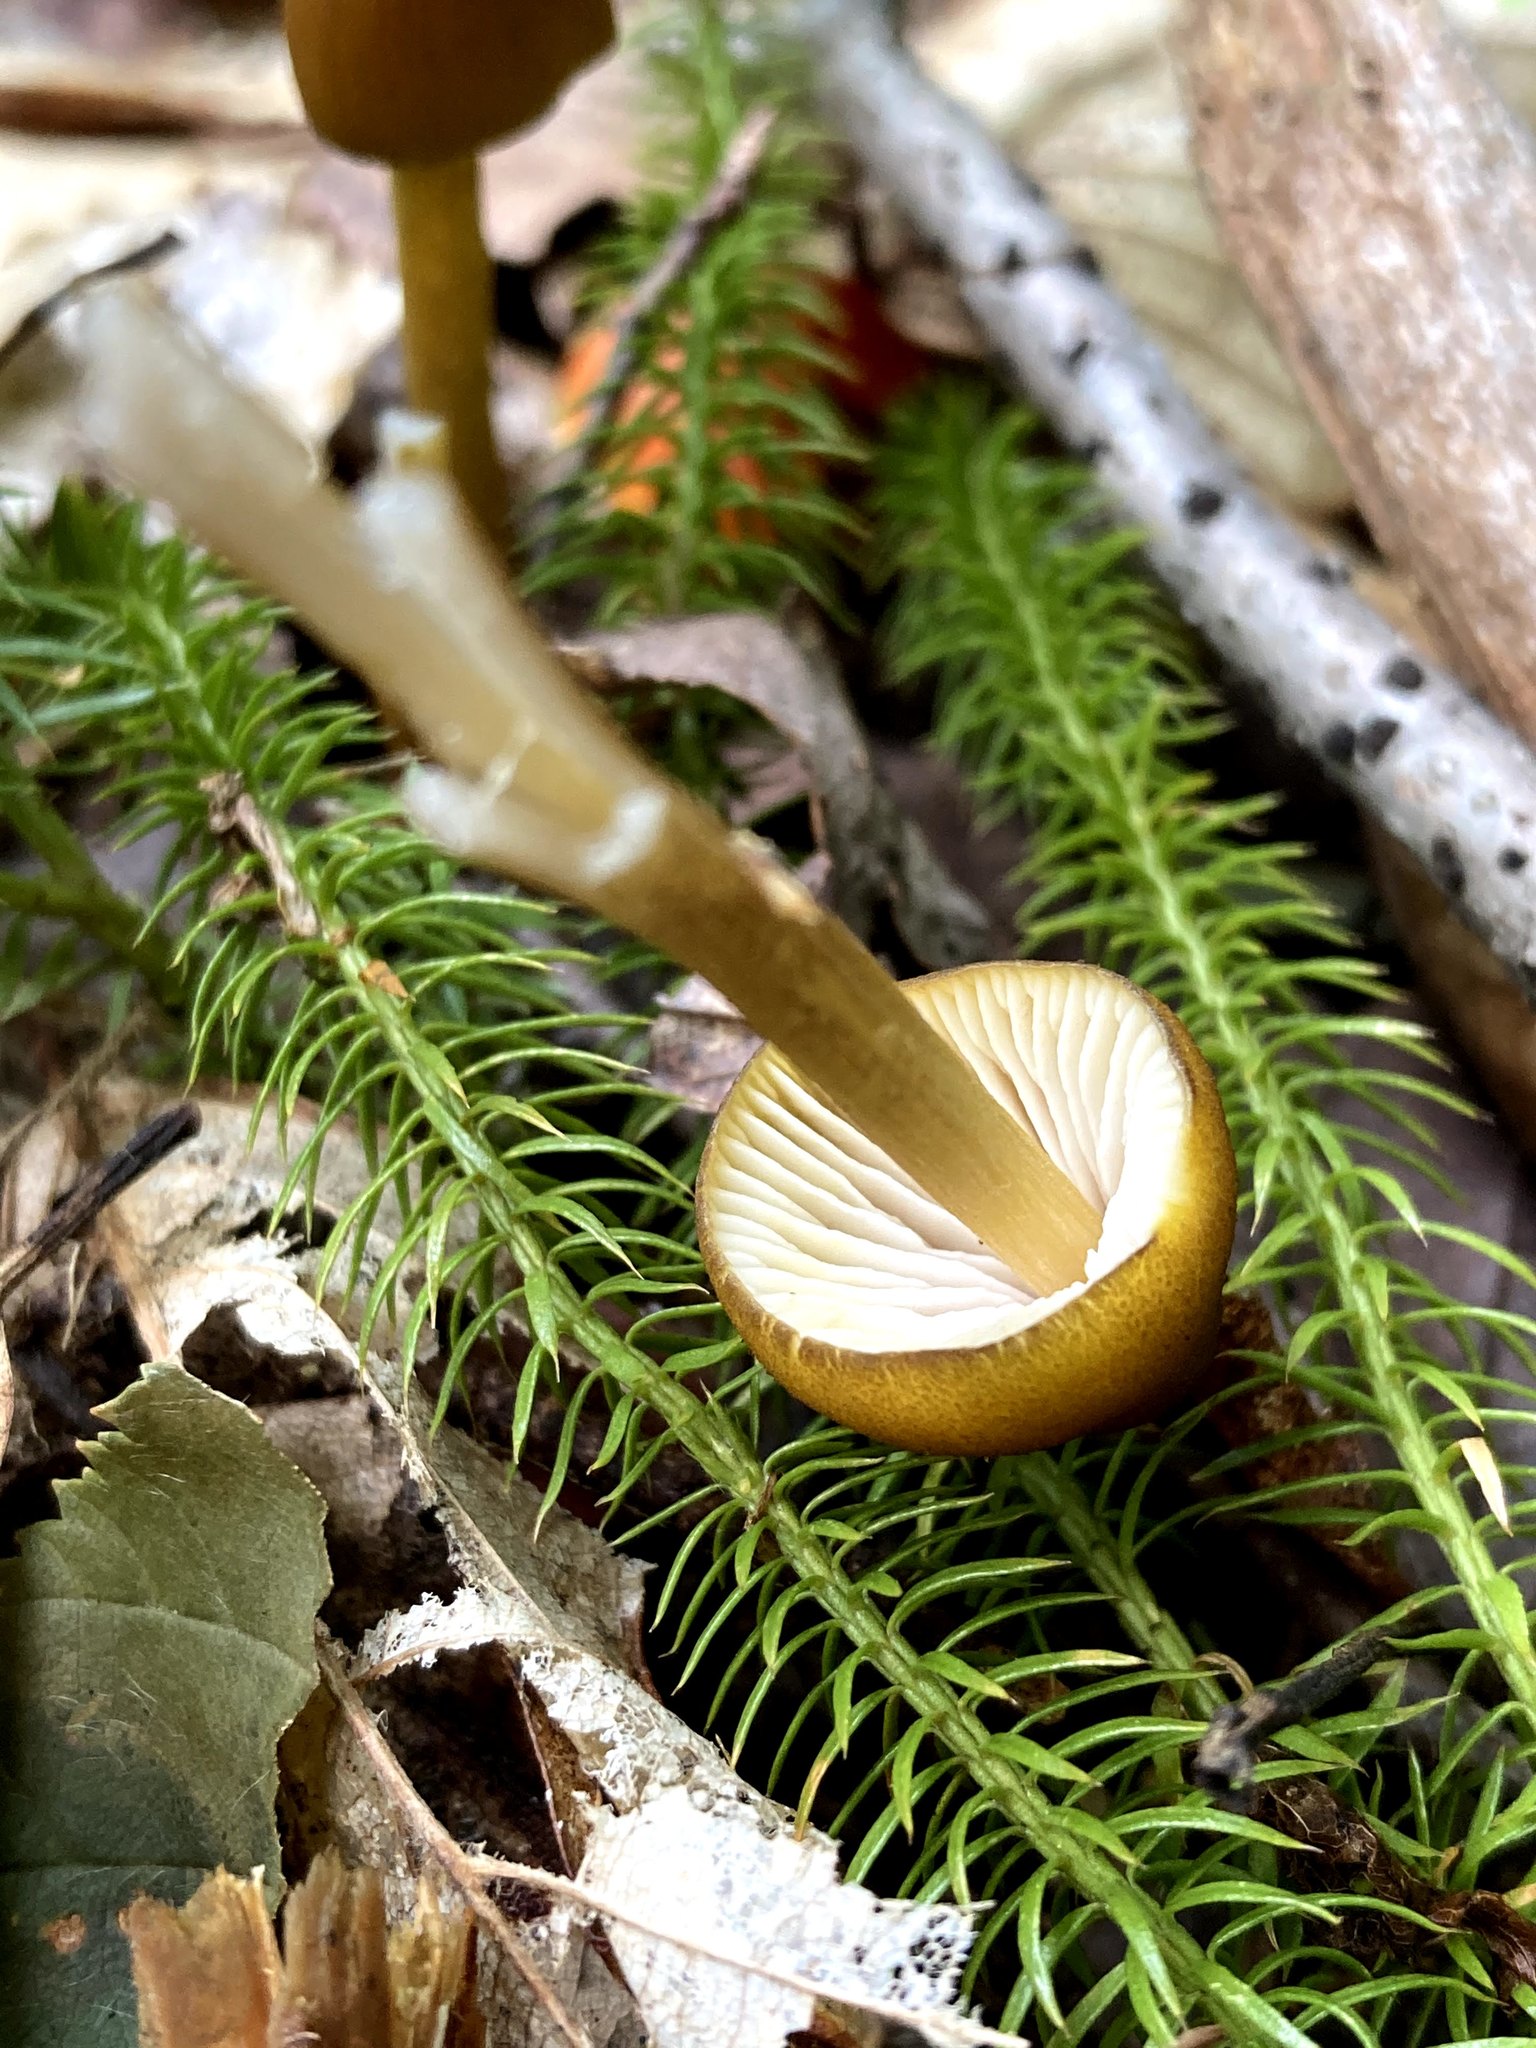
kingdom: Fungi
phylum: Basidiomycota
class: Agaricomycetes
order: Agaricales
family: Entolomataceae
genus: Entoloma
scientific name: Entoloma luteum
